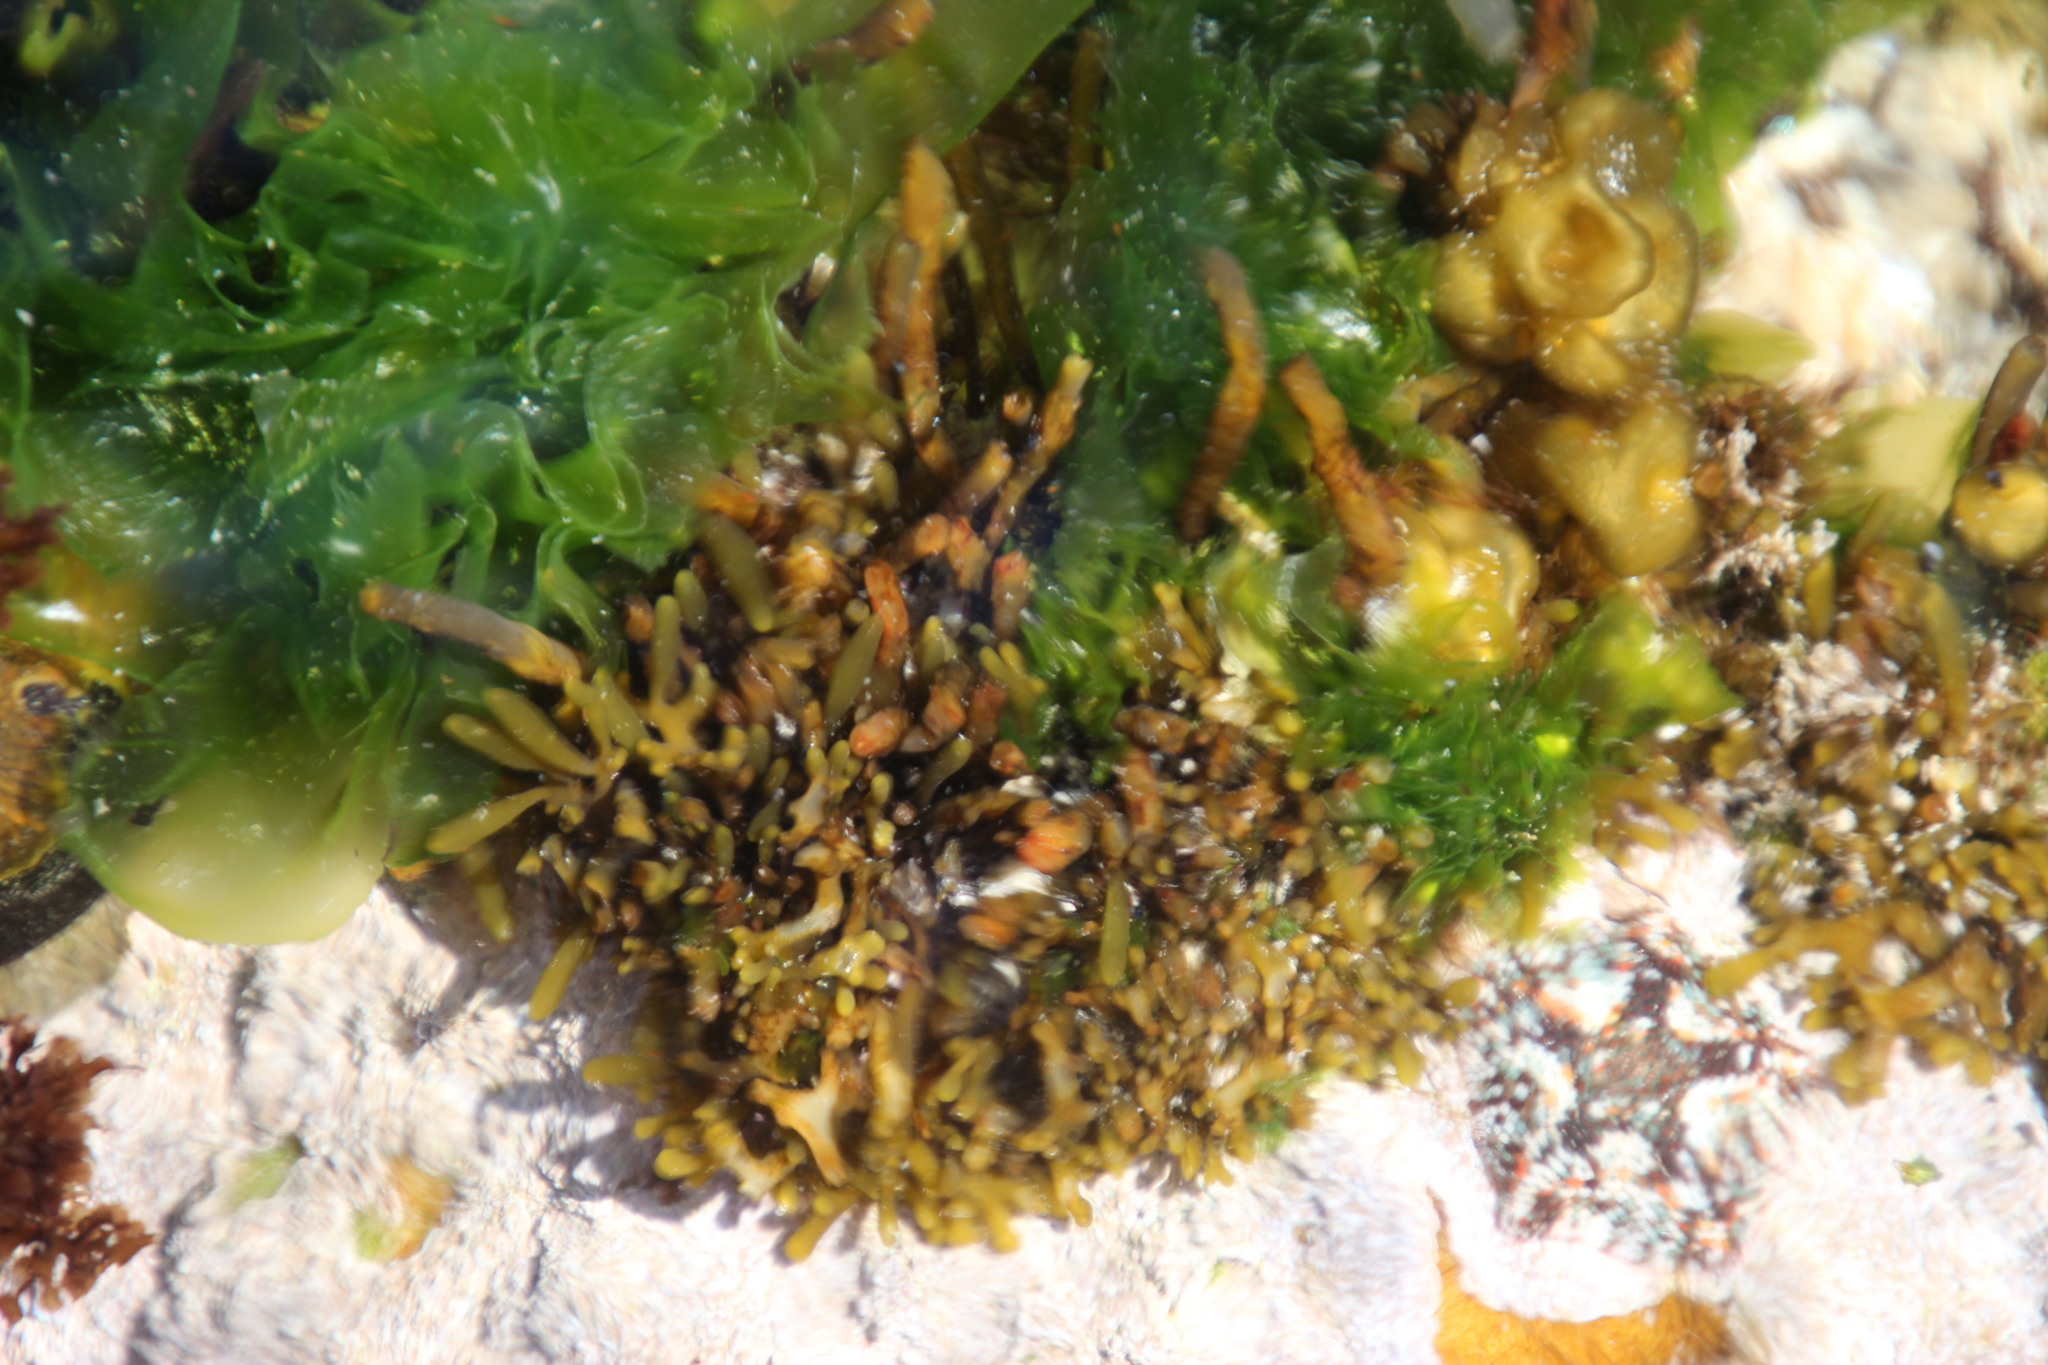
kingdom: Chromista
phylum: Ochrophyta
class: Phaeophyceae
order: Fucales
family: Sargassaceae
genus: Brassicophycus
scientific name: Brassicophycus
